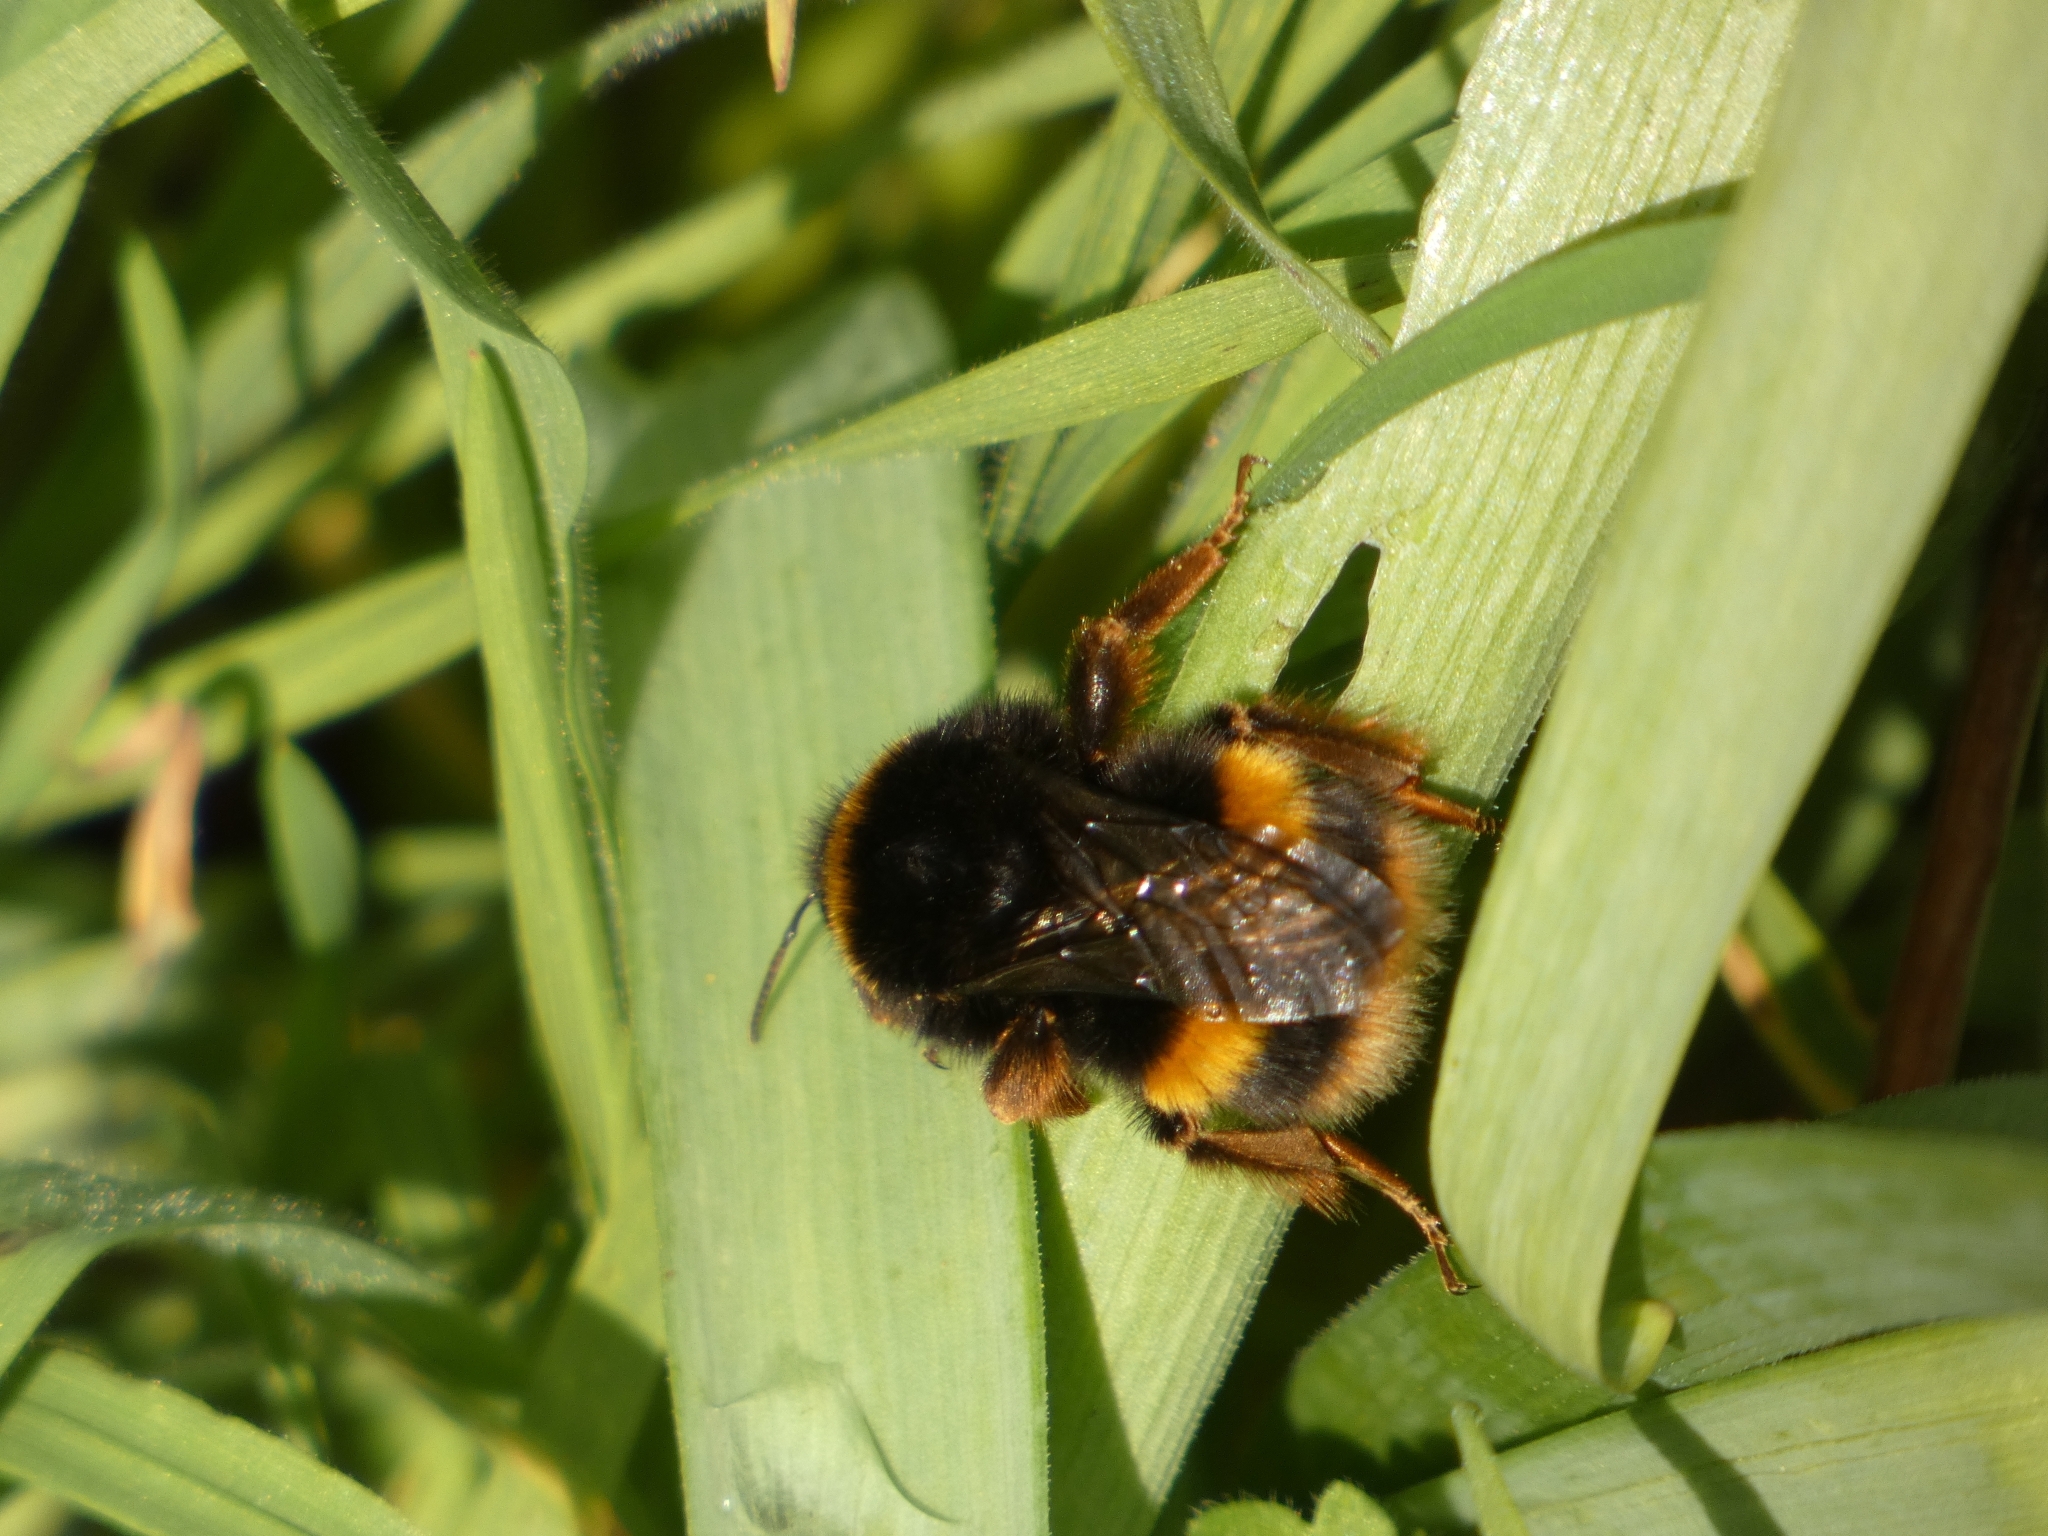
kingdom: Animalia
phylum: Arthropoda
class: Insecta
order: Hymenoptera
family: Apidae
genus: Bombus
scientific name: Bombus terrestris
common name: Buff-tailed bumblebee
